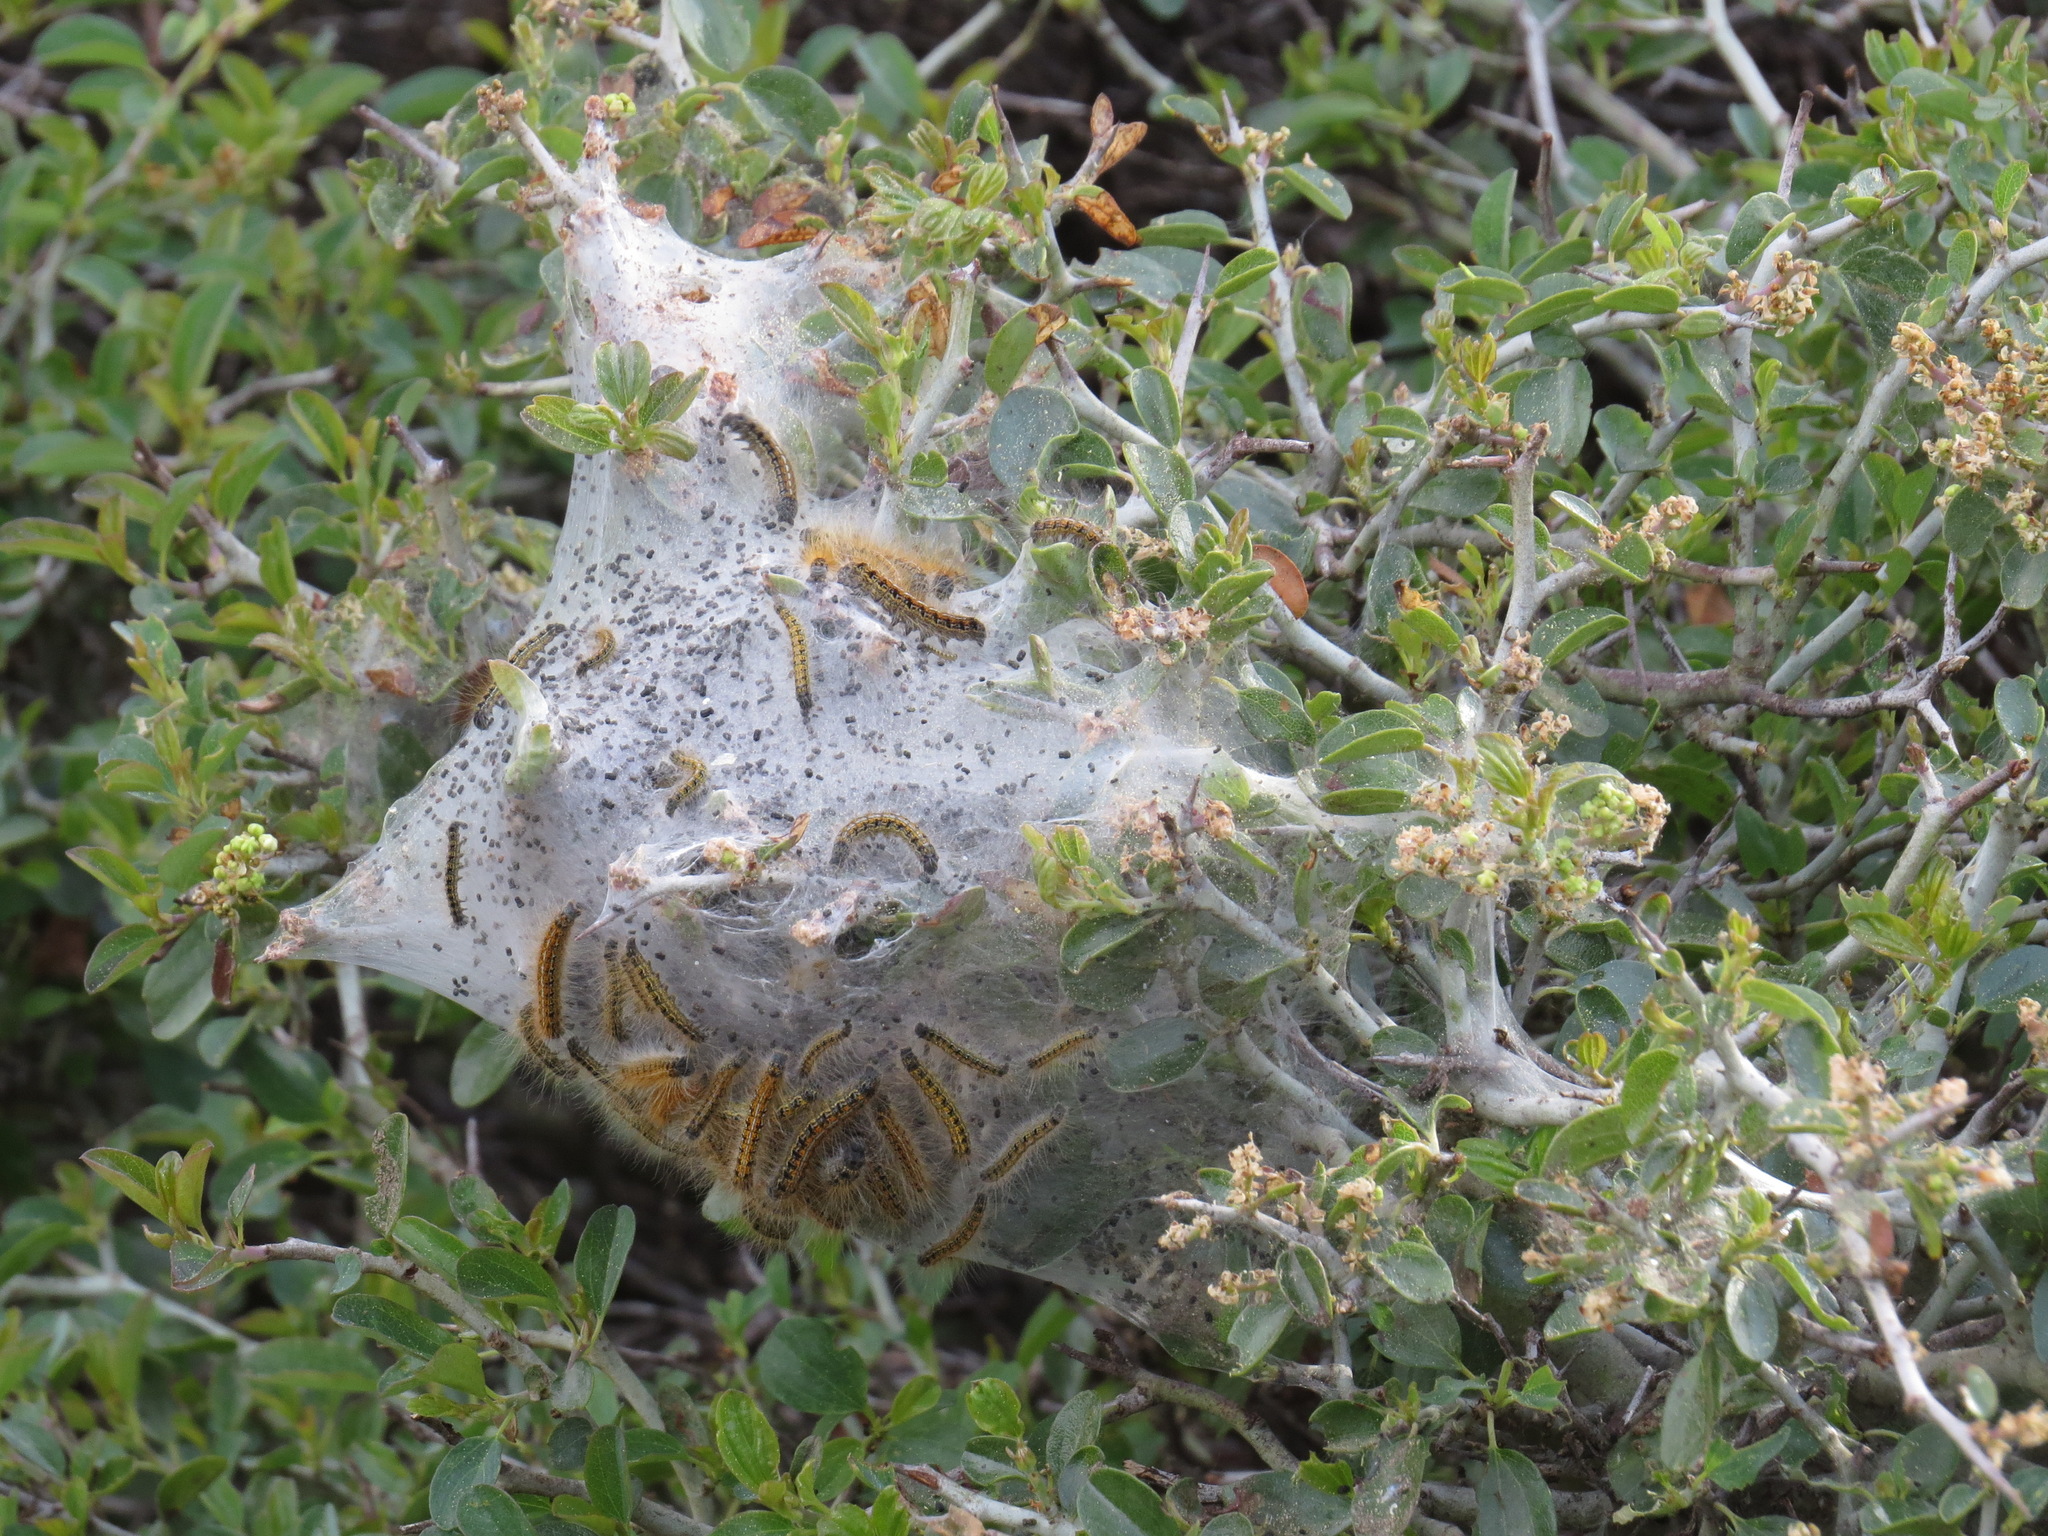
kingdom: Animalia
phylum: Arthropoda
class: Insecta
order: Lepidoptera
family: Lasiocampidae
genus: Malacosoma
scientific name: Malacosoma californica
